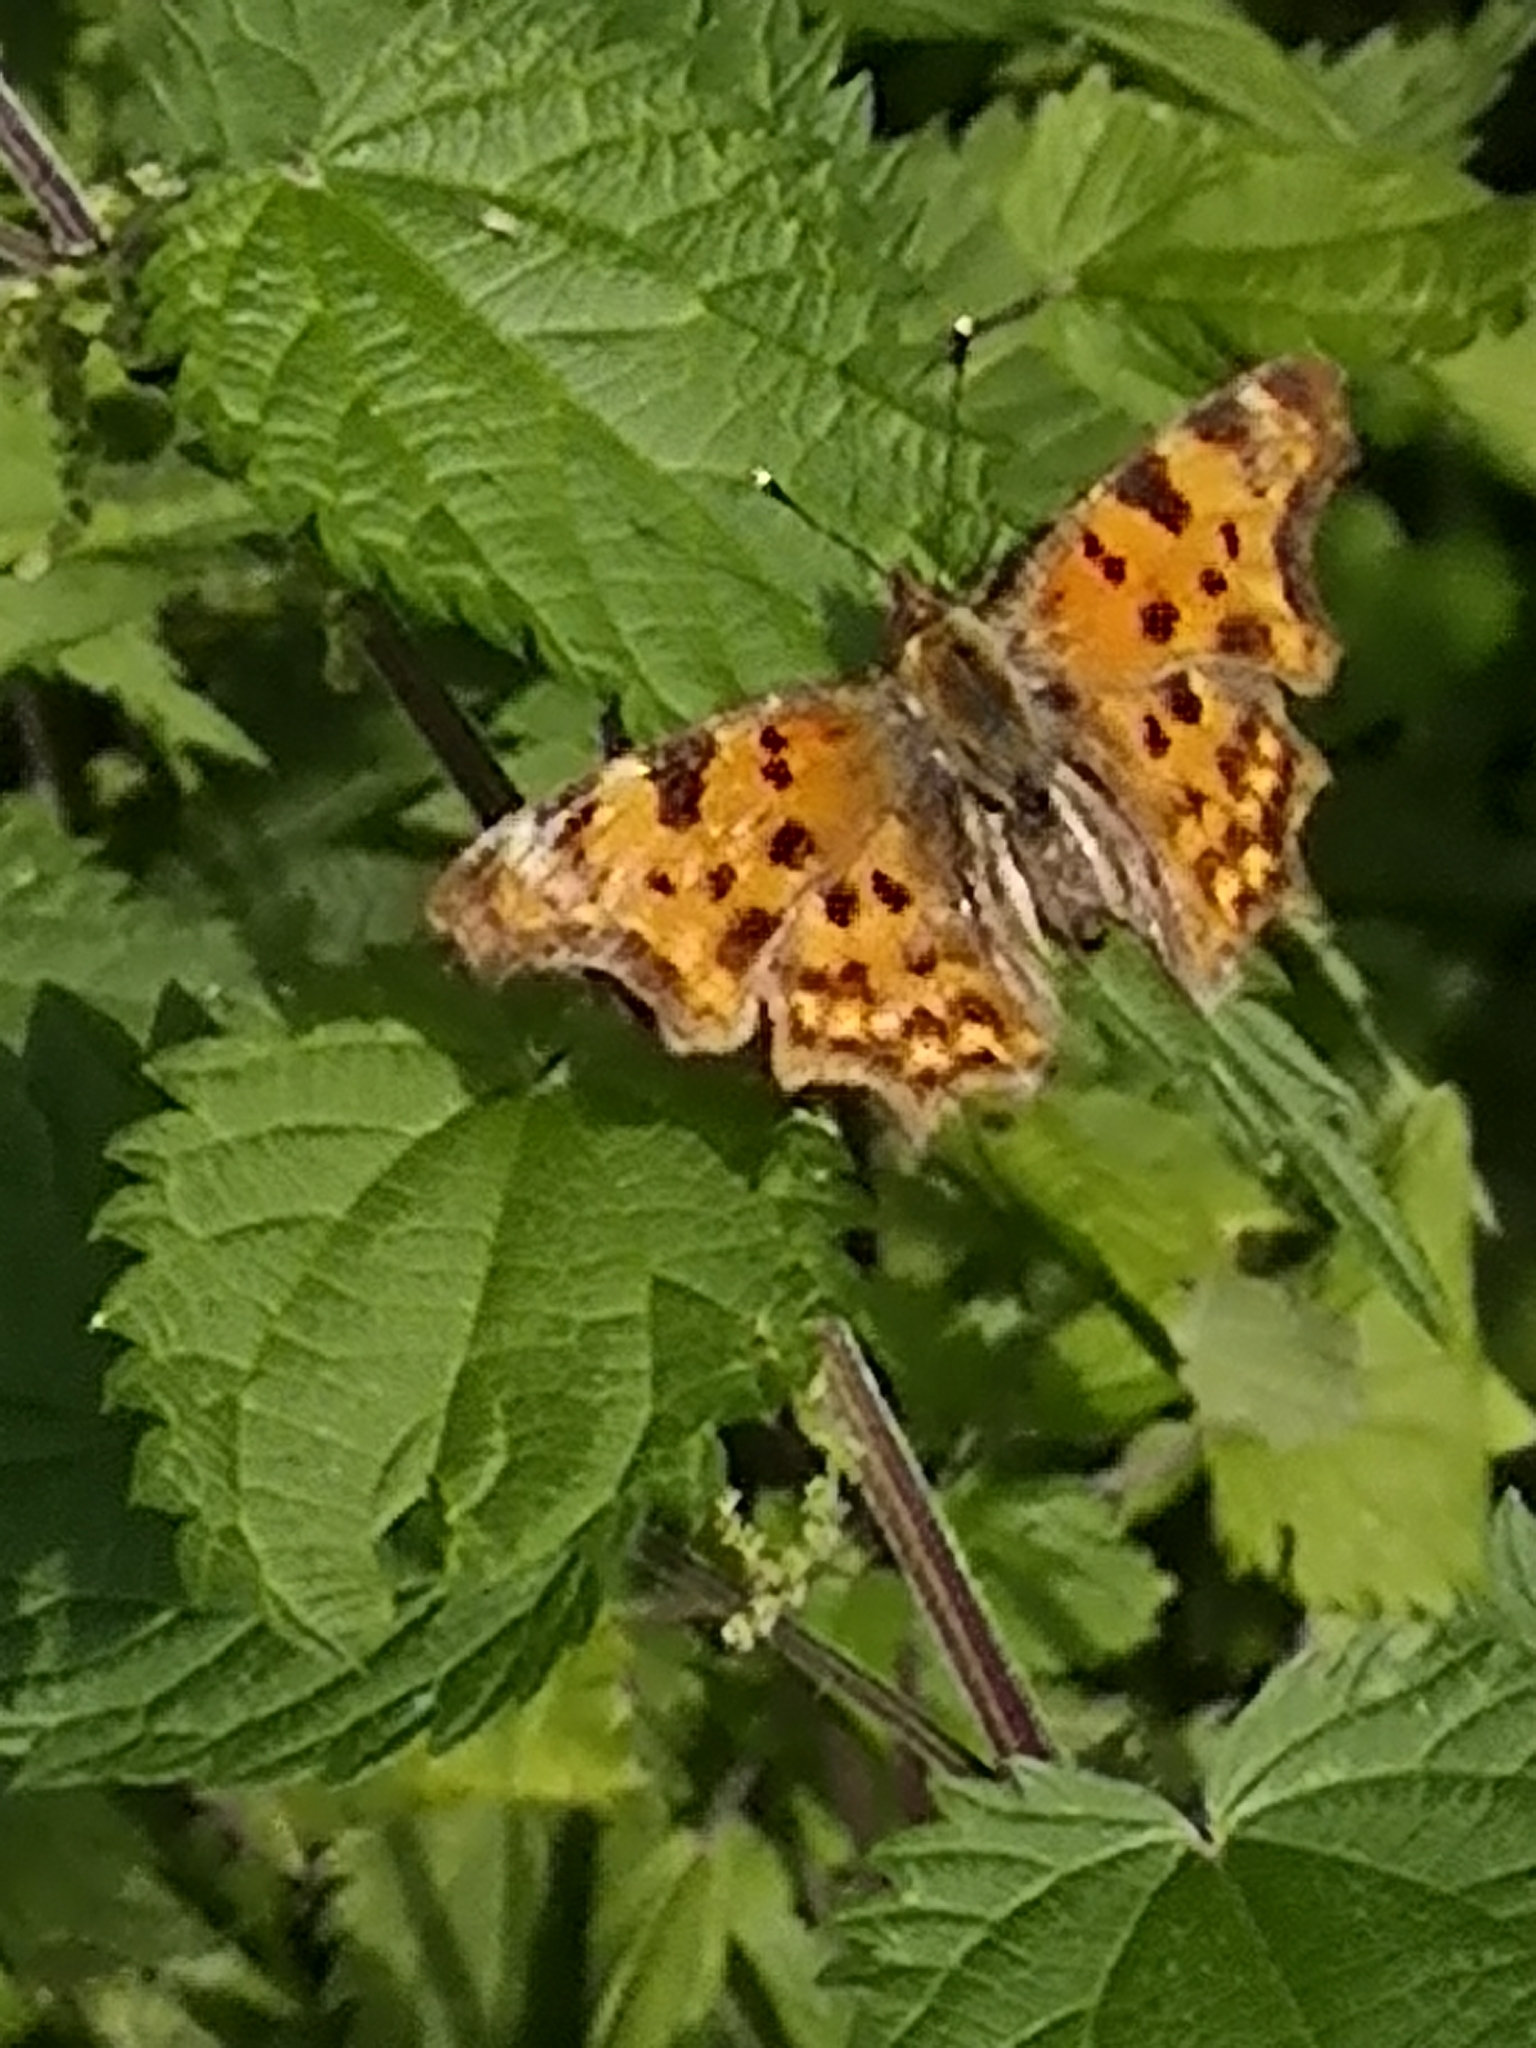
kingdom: Animalia
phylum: Arthropoda
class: Insecta
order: Lepidoptera
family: Nymphalidae
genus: Polygonia
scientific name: Polygonia c-album
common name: Comma
